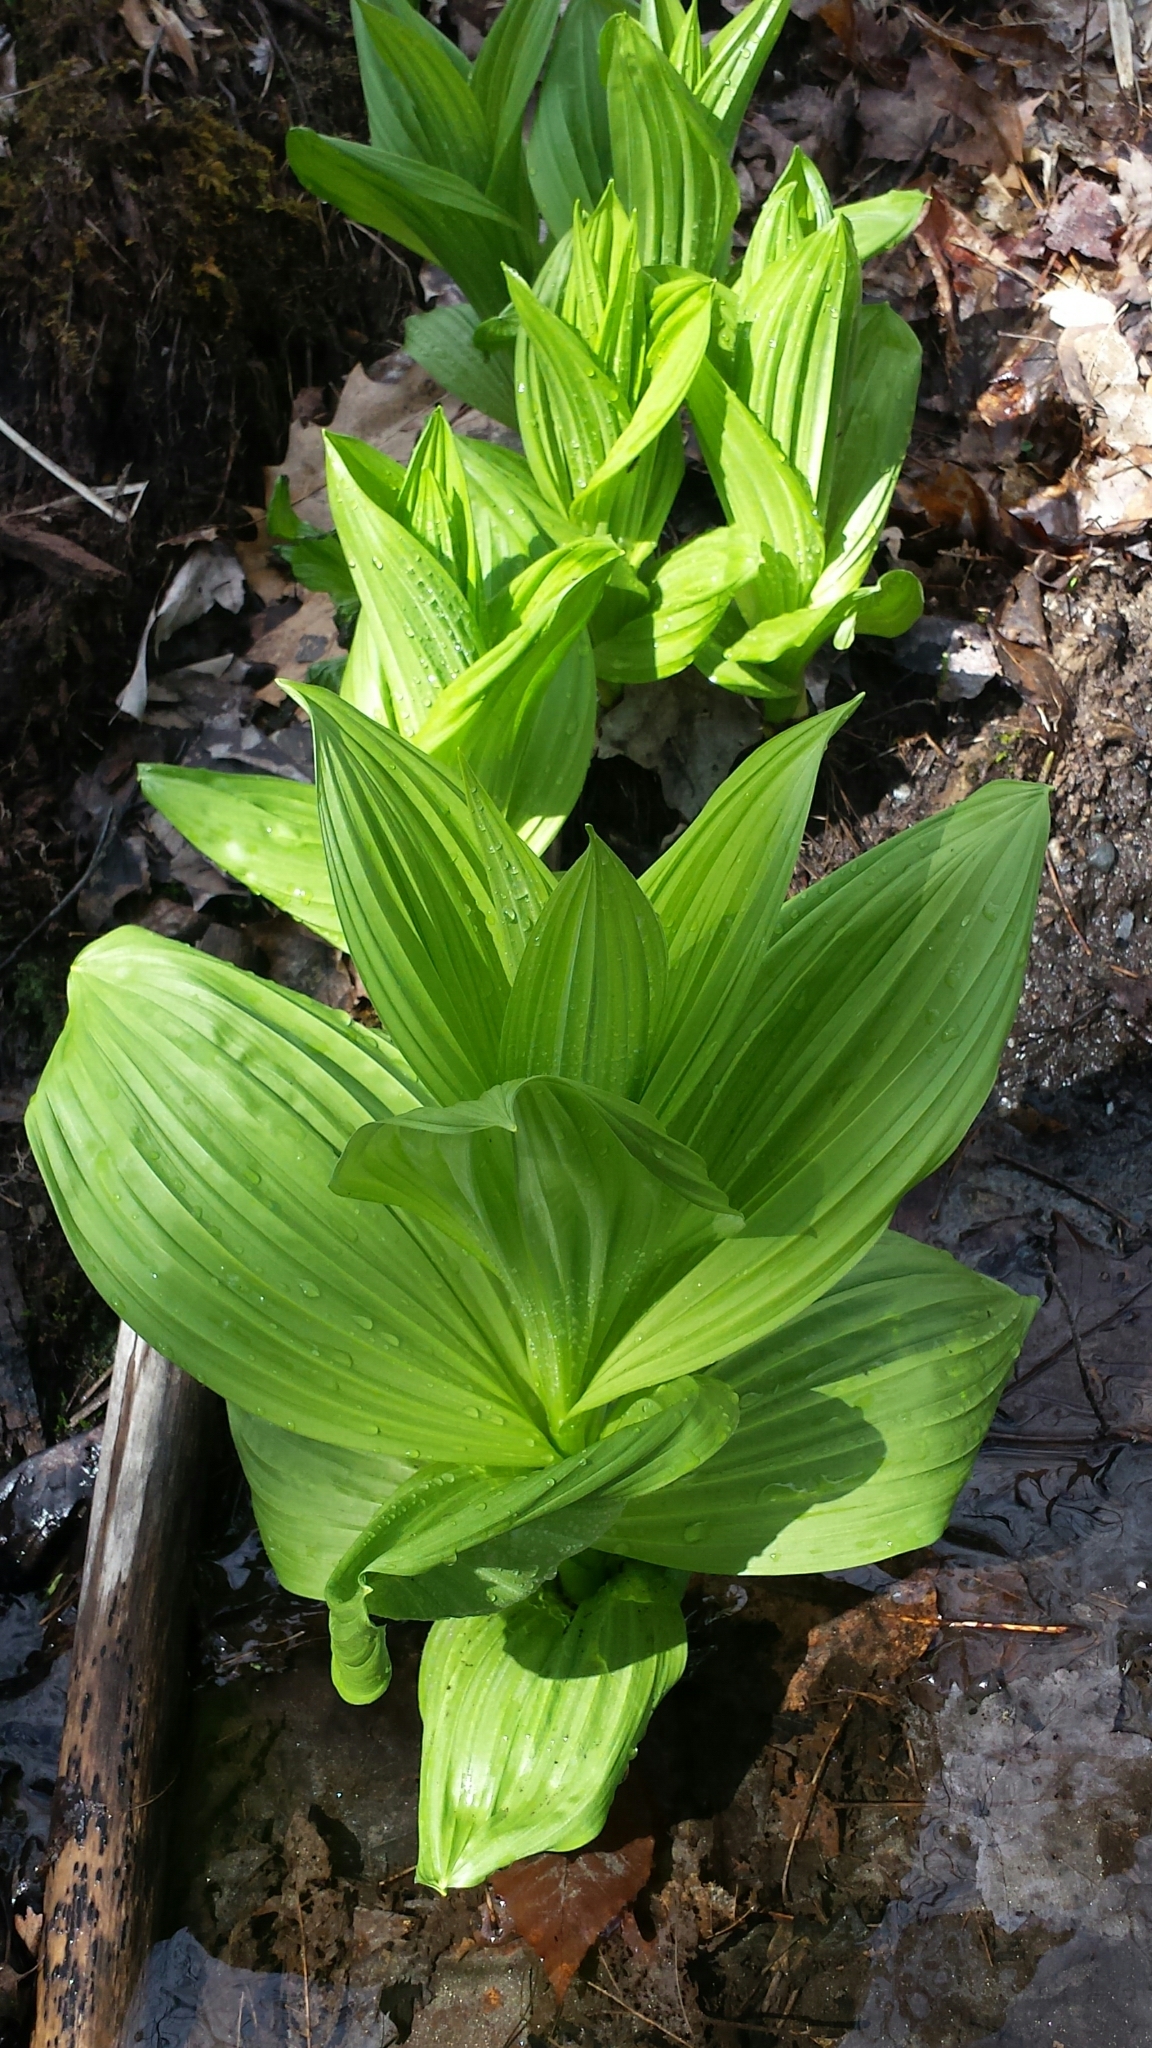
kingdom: Plantae
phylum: Tracheophyta
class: Liliopsida
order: Liliales
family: Melanthiaceae
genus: Veratrum
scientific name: Veratrum viride
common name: American false hellebore
